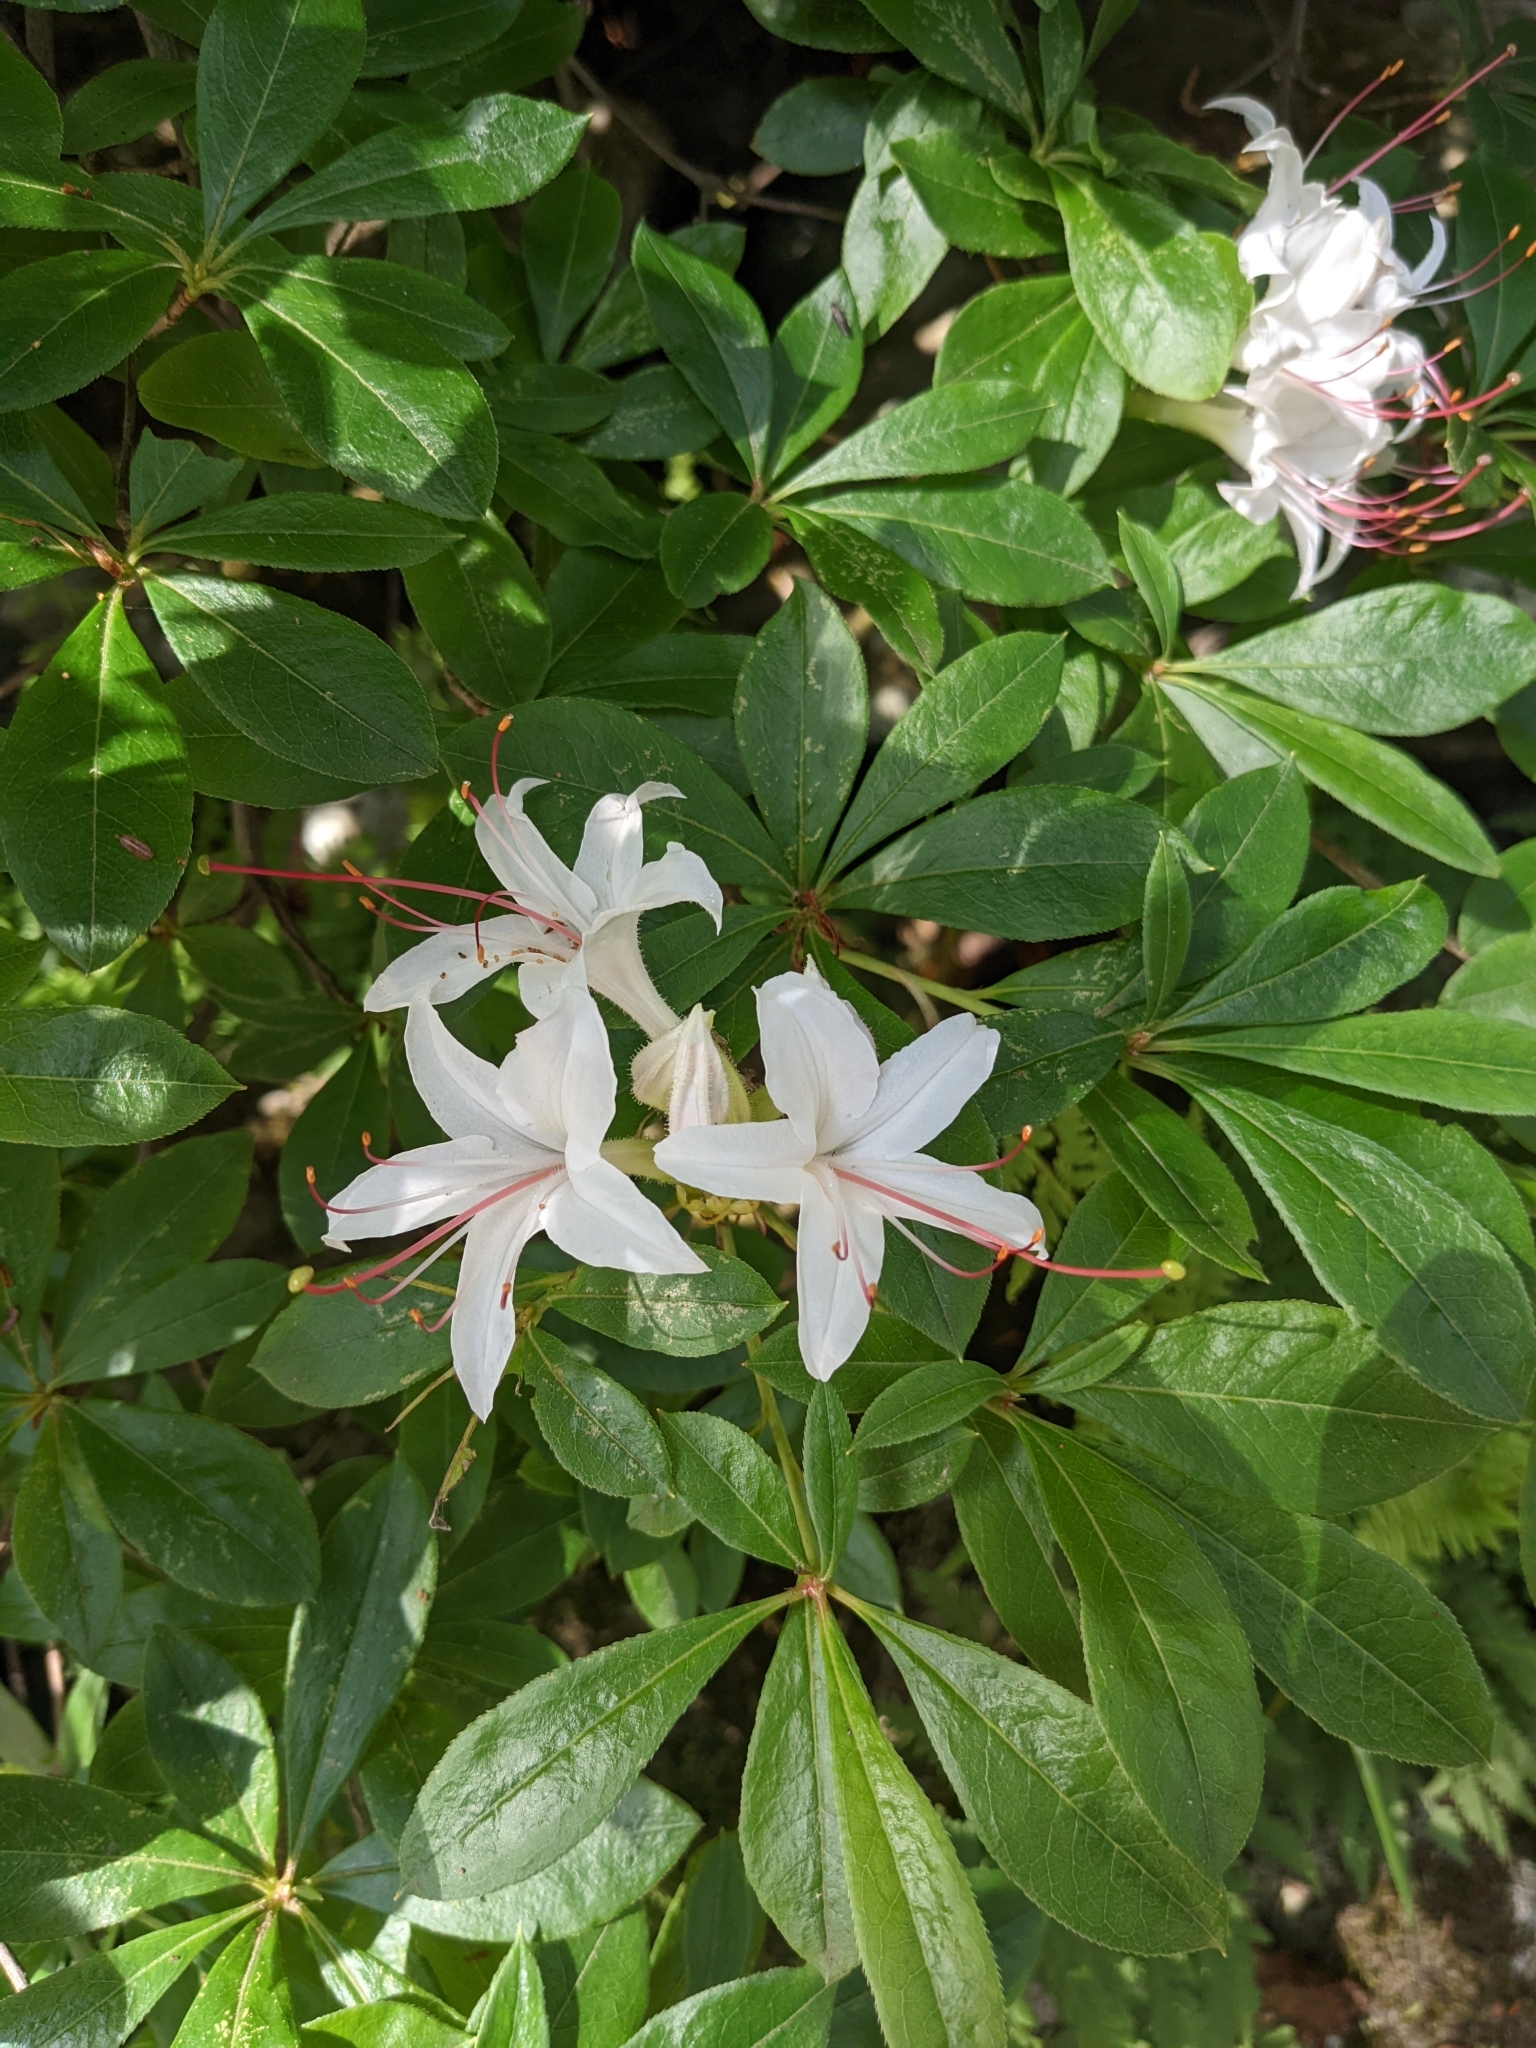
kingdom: Plantae
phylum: Tracheophyta
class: Magnoliopsida
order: Ericales
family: Ericaceae
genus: Rhododendron
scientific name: Rhododendron viscosum
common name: Clammy azalea
